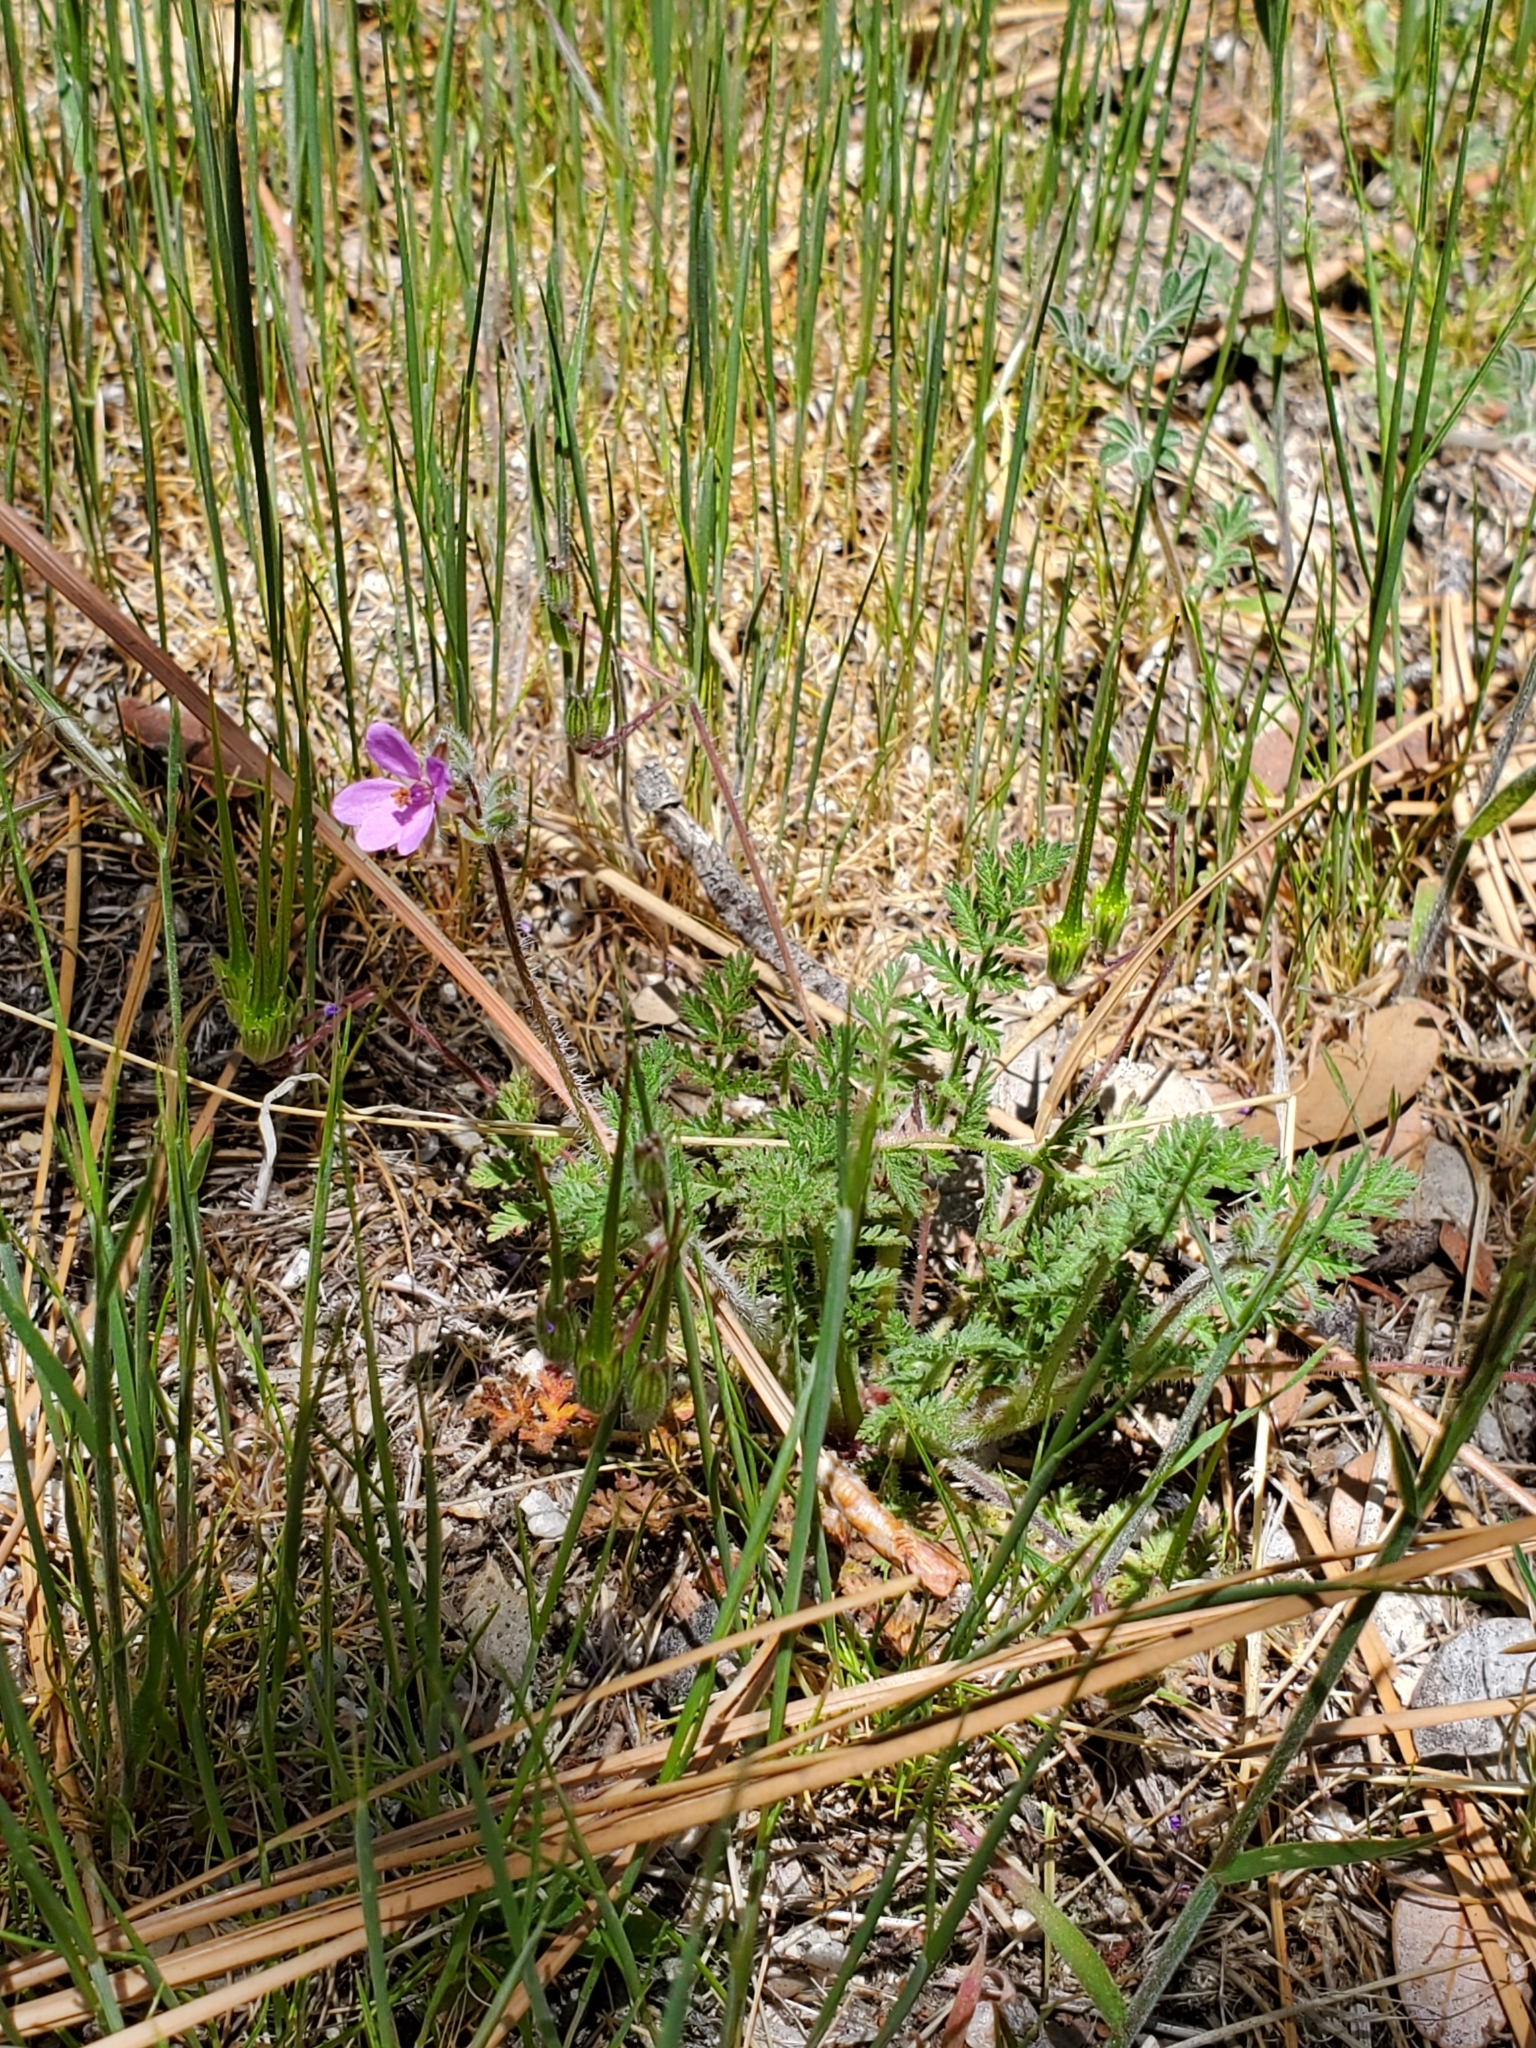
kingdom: Plantae
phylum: Tracheophyta
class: Magnoliopsida
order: Geraniales
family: Geraniaceae
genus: Erodium
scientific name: Erodium cicutarium
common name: Common stork's-bill
